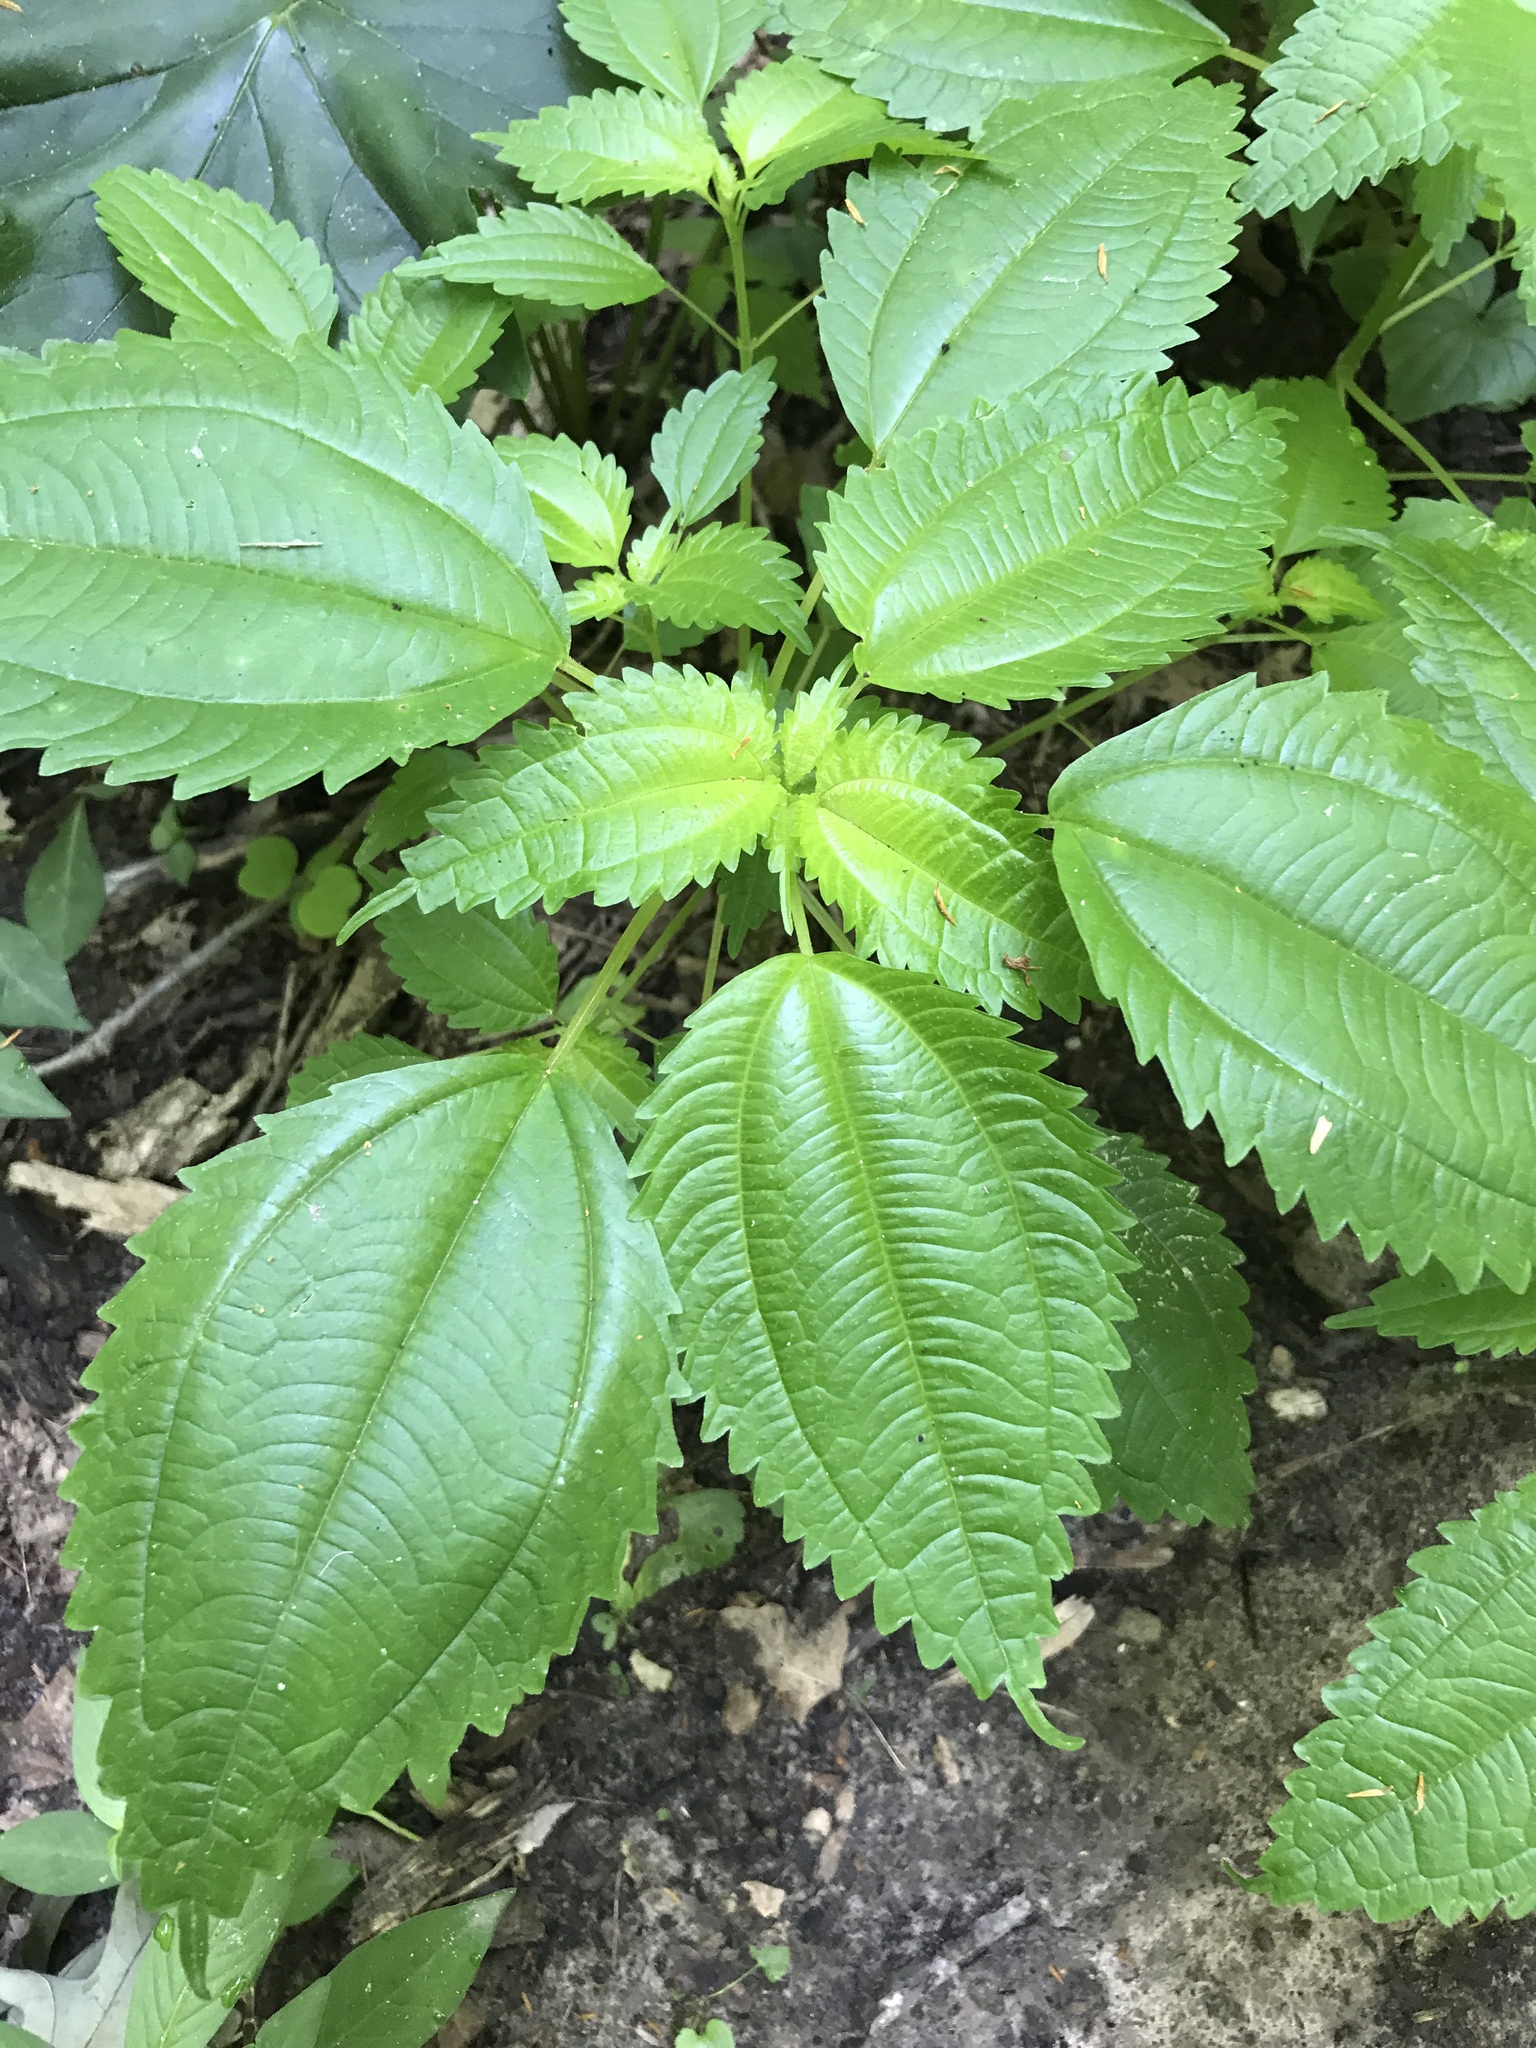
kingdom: Plantae
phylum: Tracheophyta
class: Magnoliopsida
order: Rosales
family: Urticaceae
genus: Pilea
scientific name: Pilea pumila
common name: Clearweed
